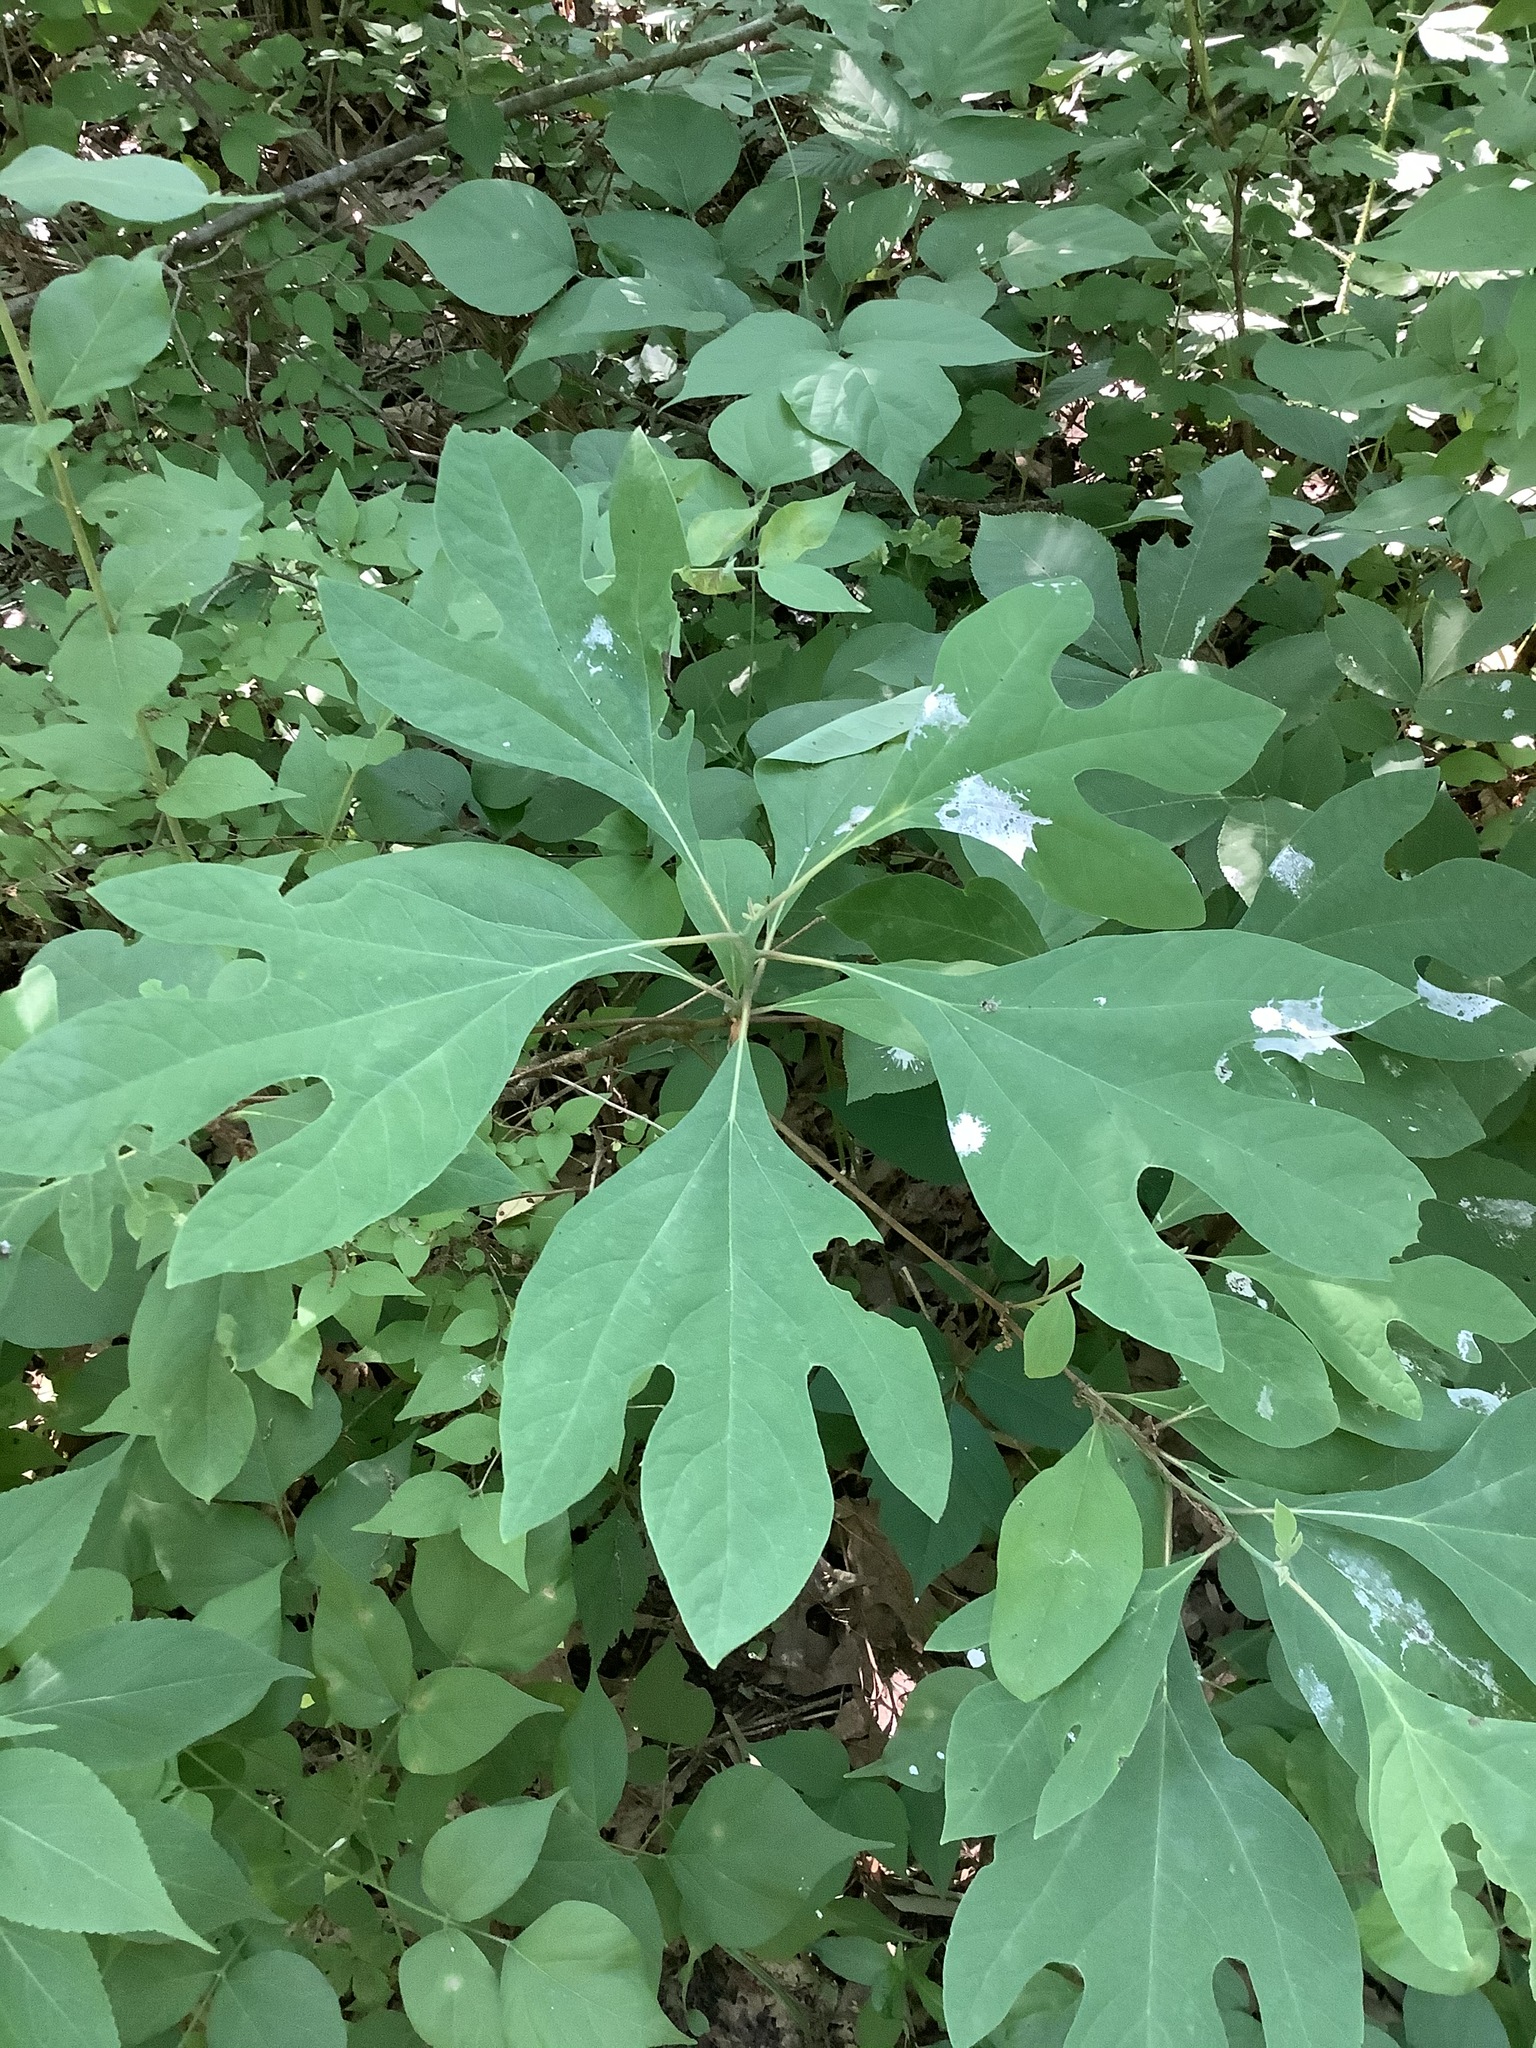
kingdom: Plantae
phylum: Tracheophyta
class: Magnoliopsida
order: Laurales
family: Lauraceae
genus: Sassafras
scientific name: Sassafras albidum
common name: Sassafras
